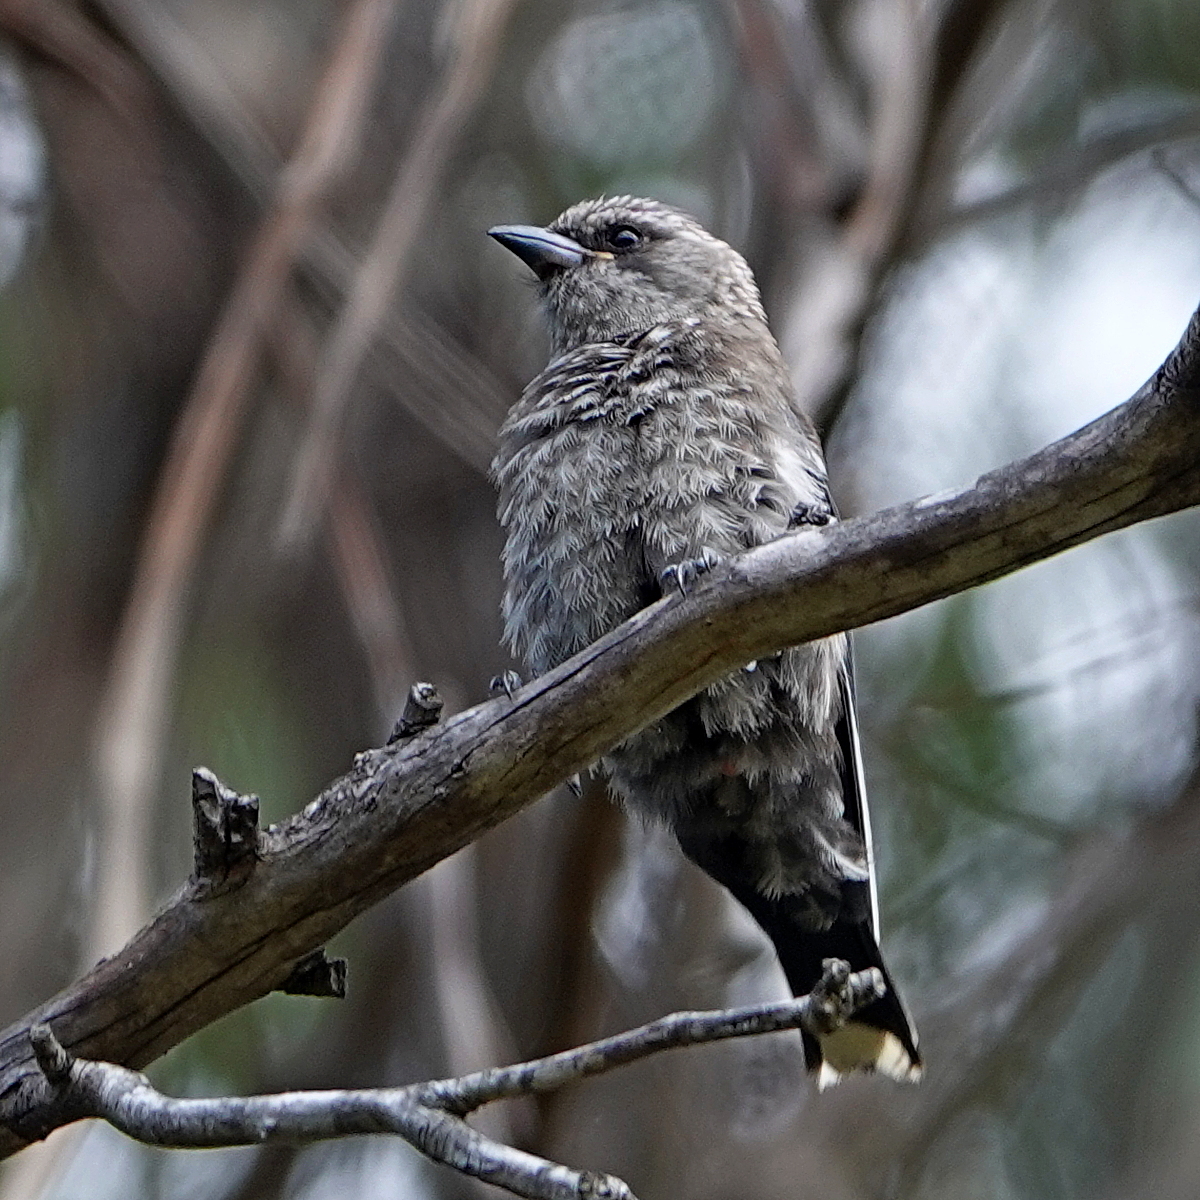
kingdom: Animalia
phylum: Chordata
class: Aves
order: Passeriformes
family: Artamidae
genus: Artamus
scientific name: Artamus cyanopterus
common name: Dusky woodswallow
